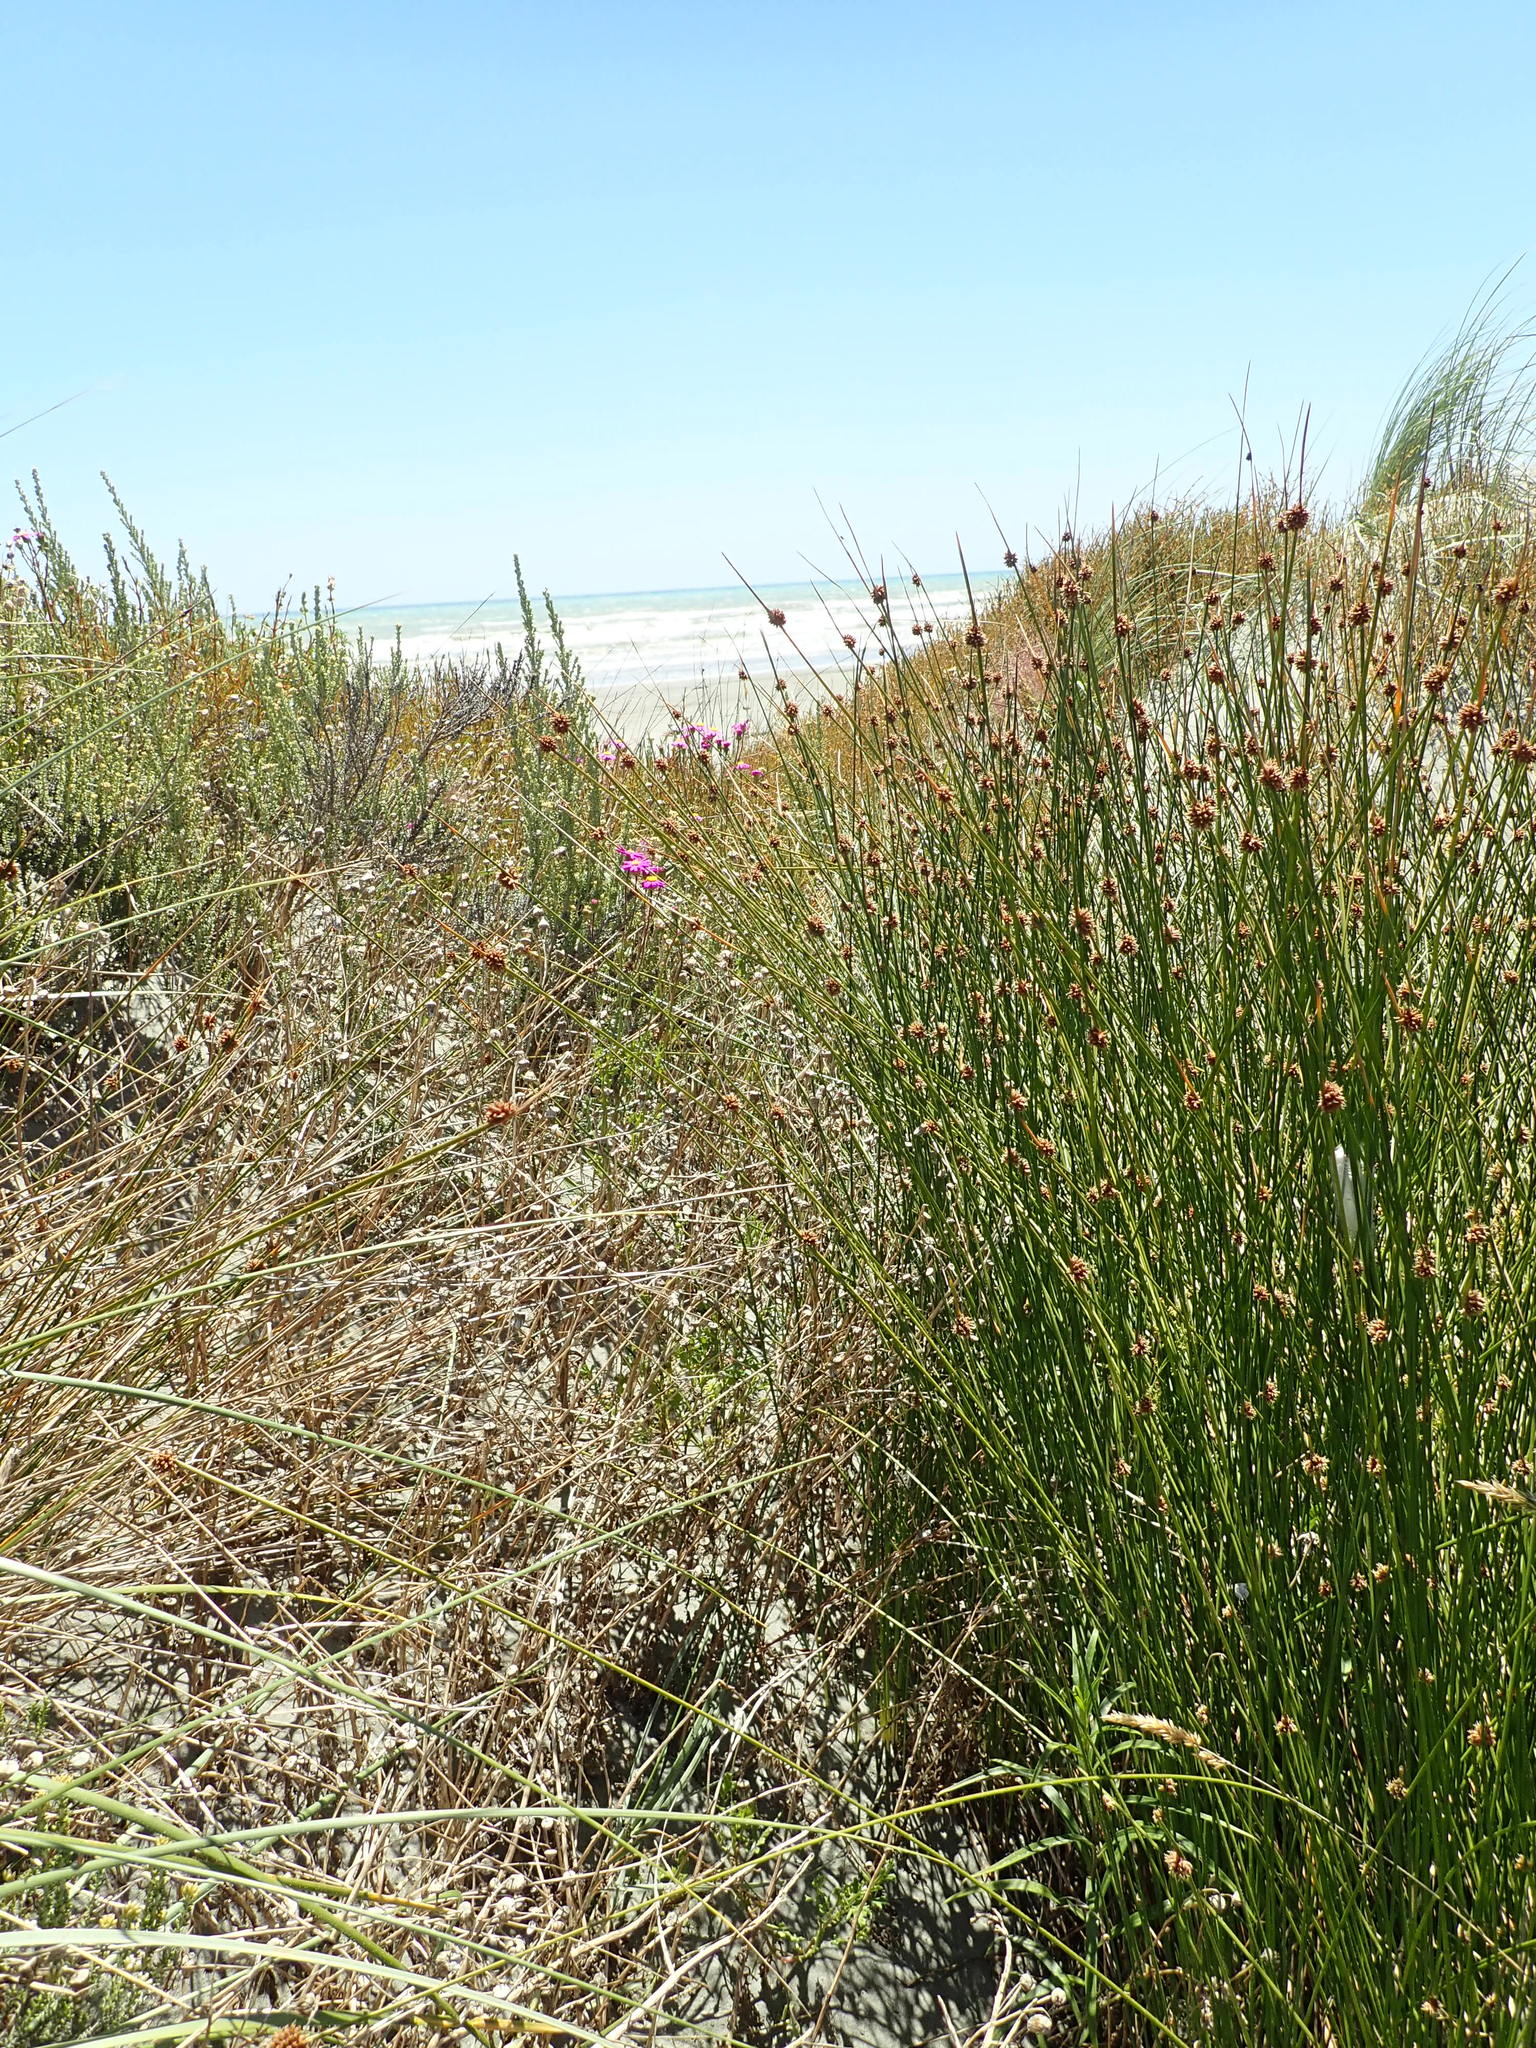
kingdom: Plantae
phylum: Tracheophyta
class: Liliopsida
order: Poales
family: Cyperaceae
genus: Ficinia
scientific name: Ficinia nodosa
